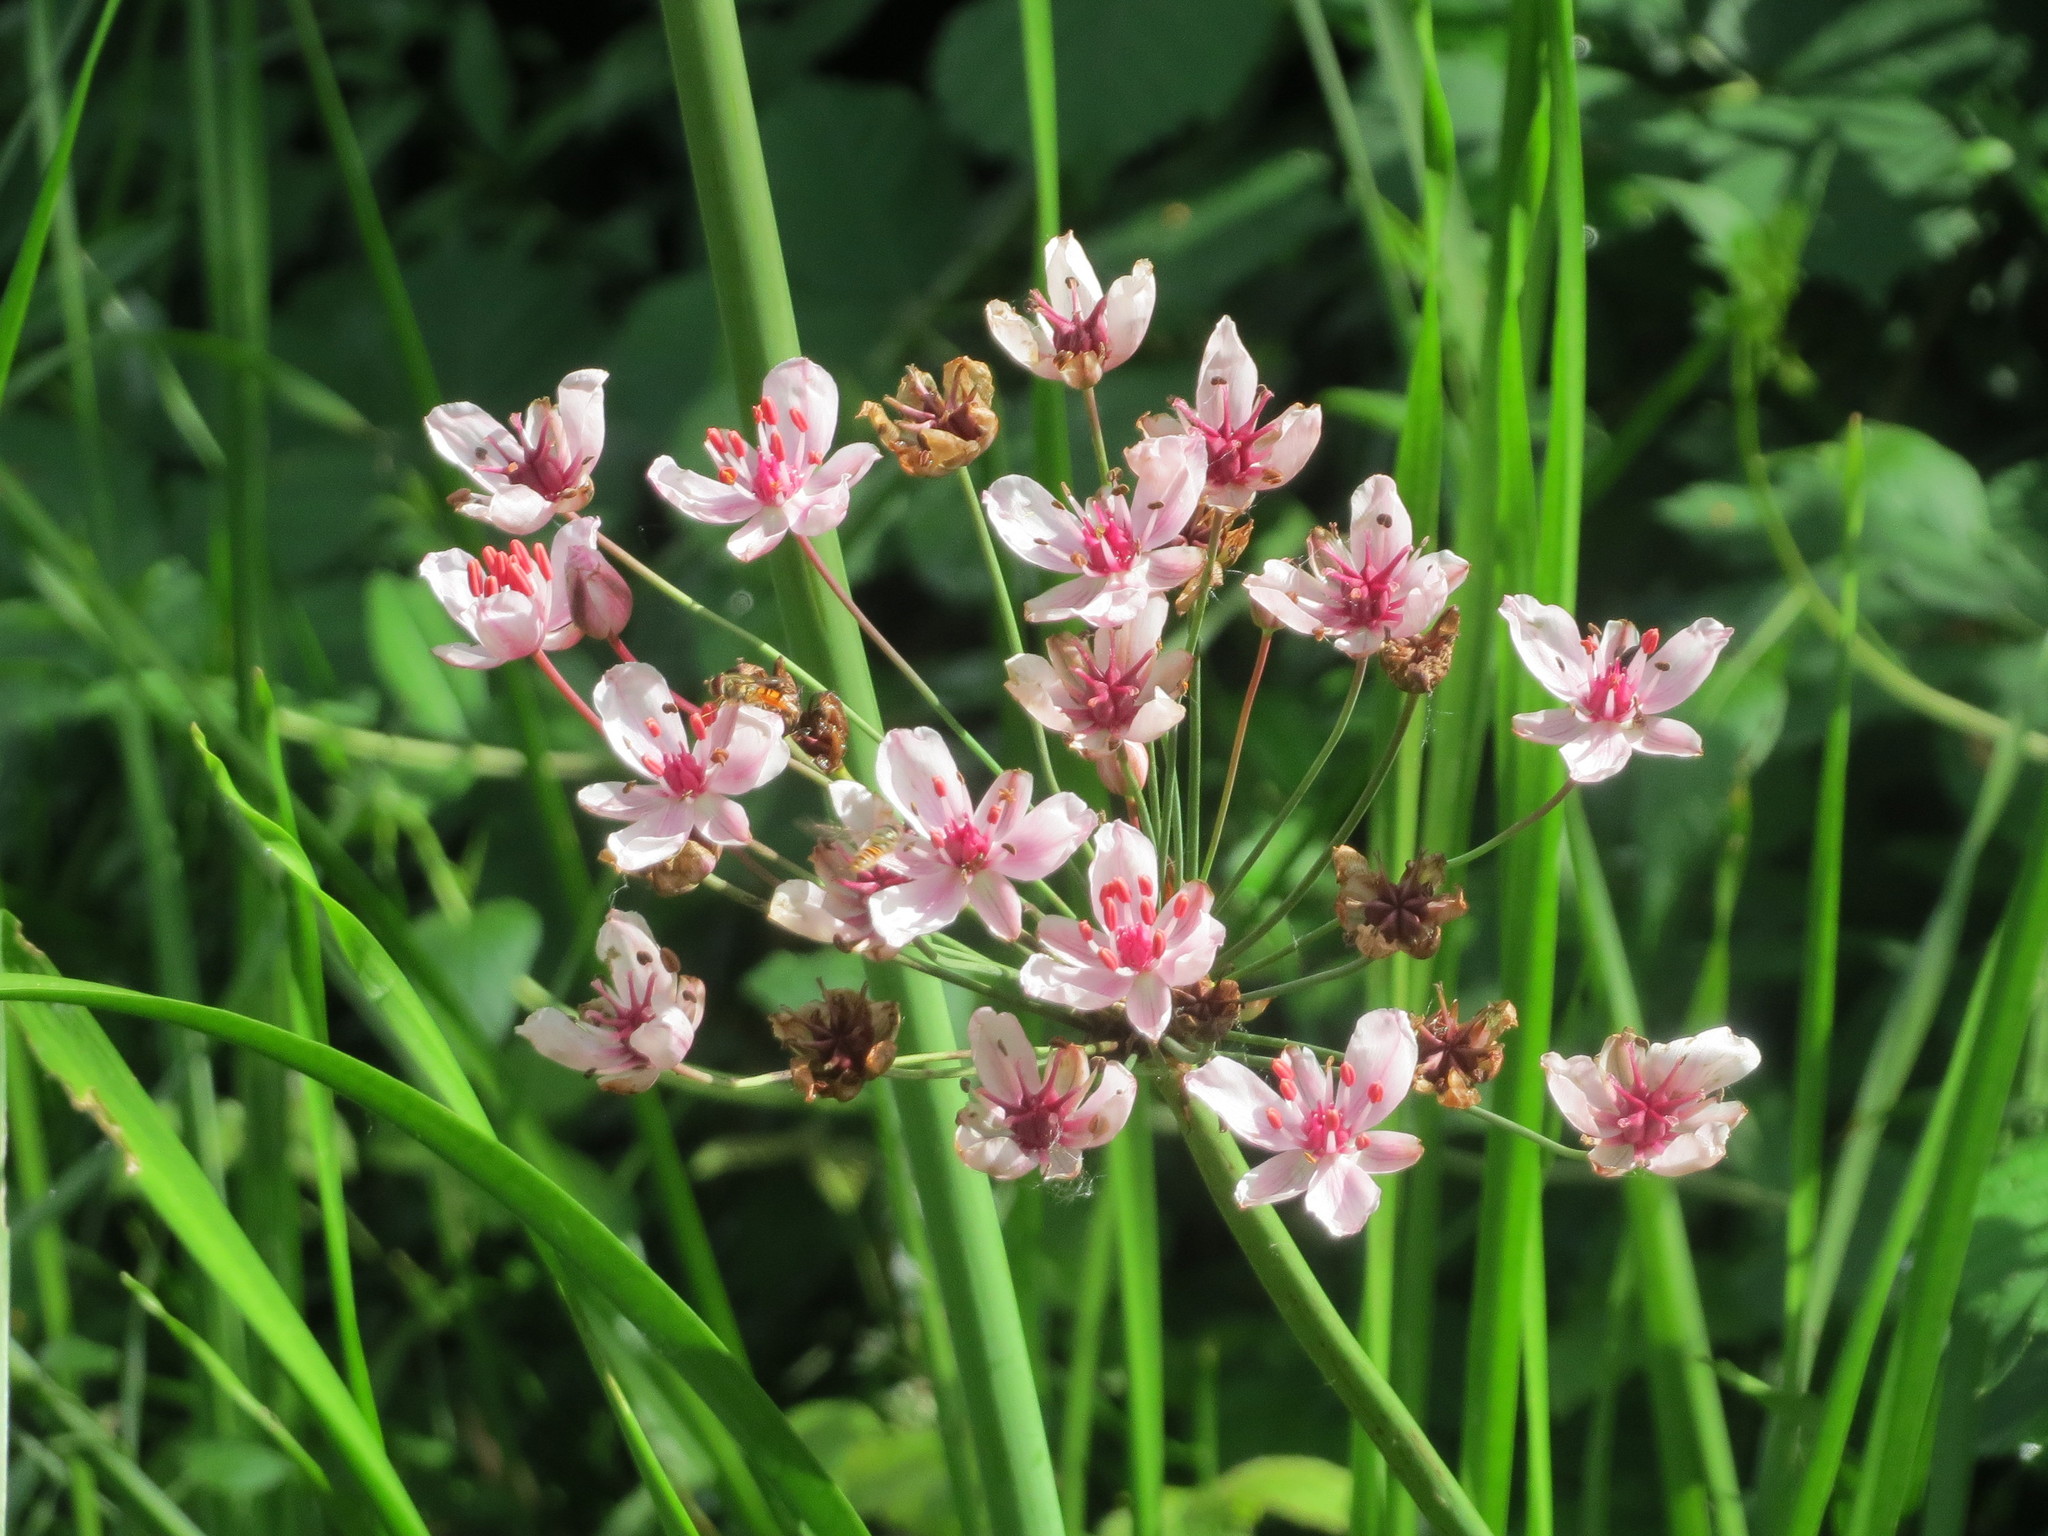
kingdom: Plantae
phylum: Tracheophyta
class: Liliopsida
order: Alismatales
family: Butomaceae
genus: Butomus
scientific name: Butomus umbellatus
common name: Flowering-rush
